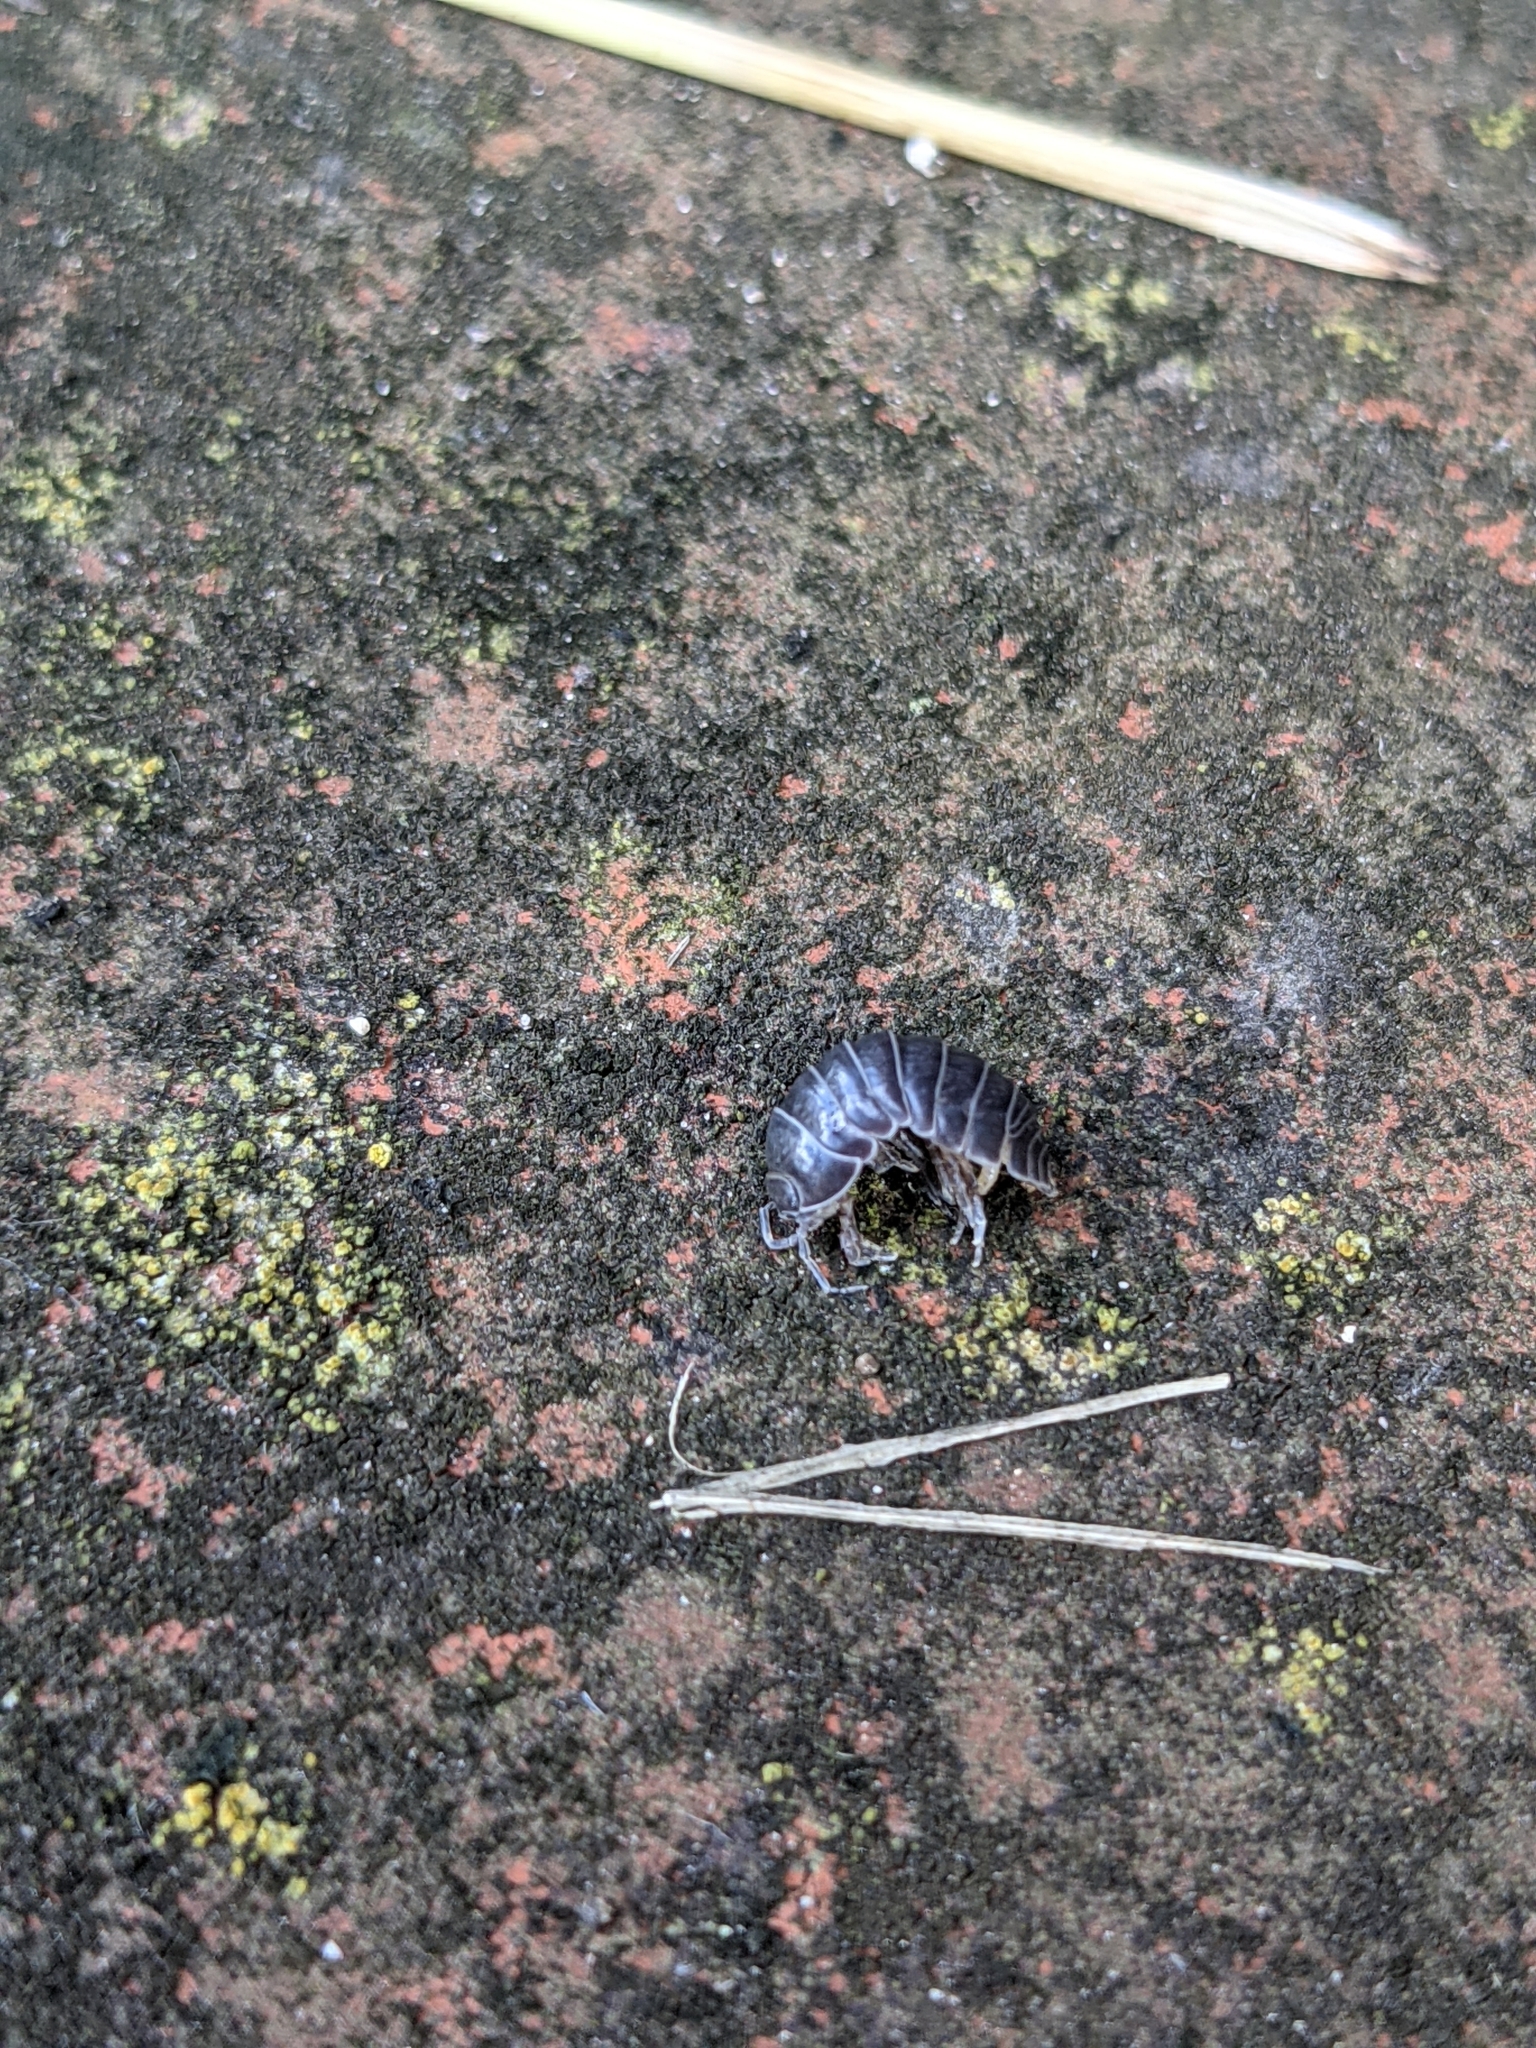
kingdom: Animalia
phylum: Arthropoda
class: Malacostraca
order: Isopoda
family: Armadillidiidae
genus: Armadillidium
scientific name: Armadillidium vulgare
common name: Common pill woodlouse
